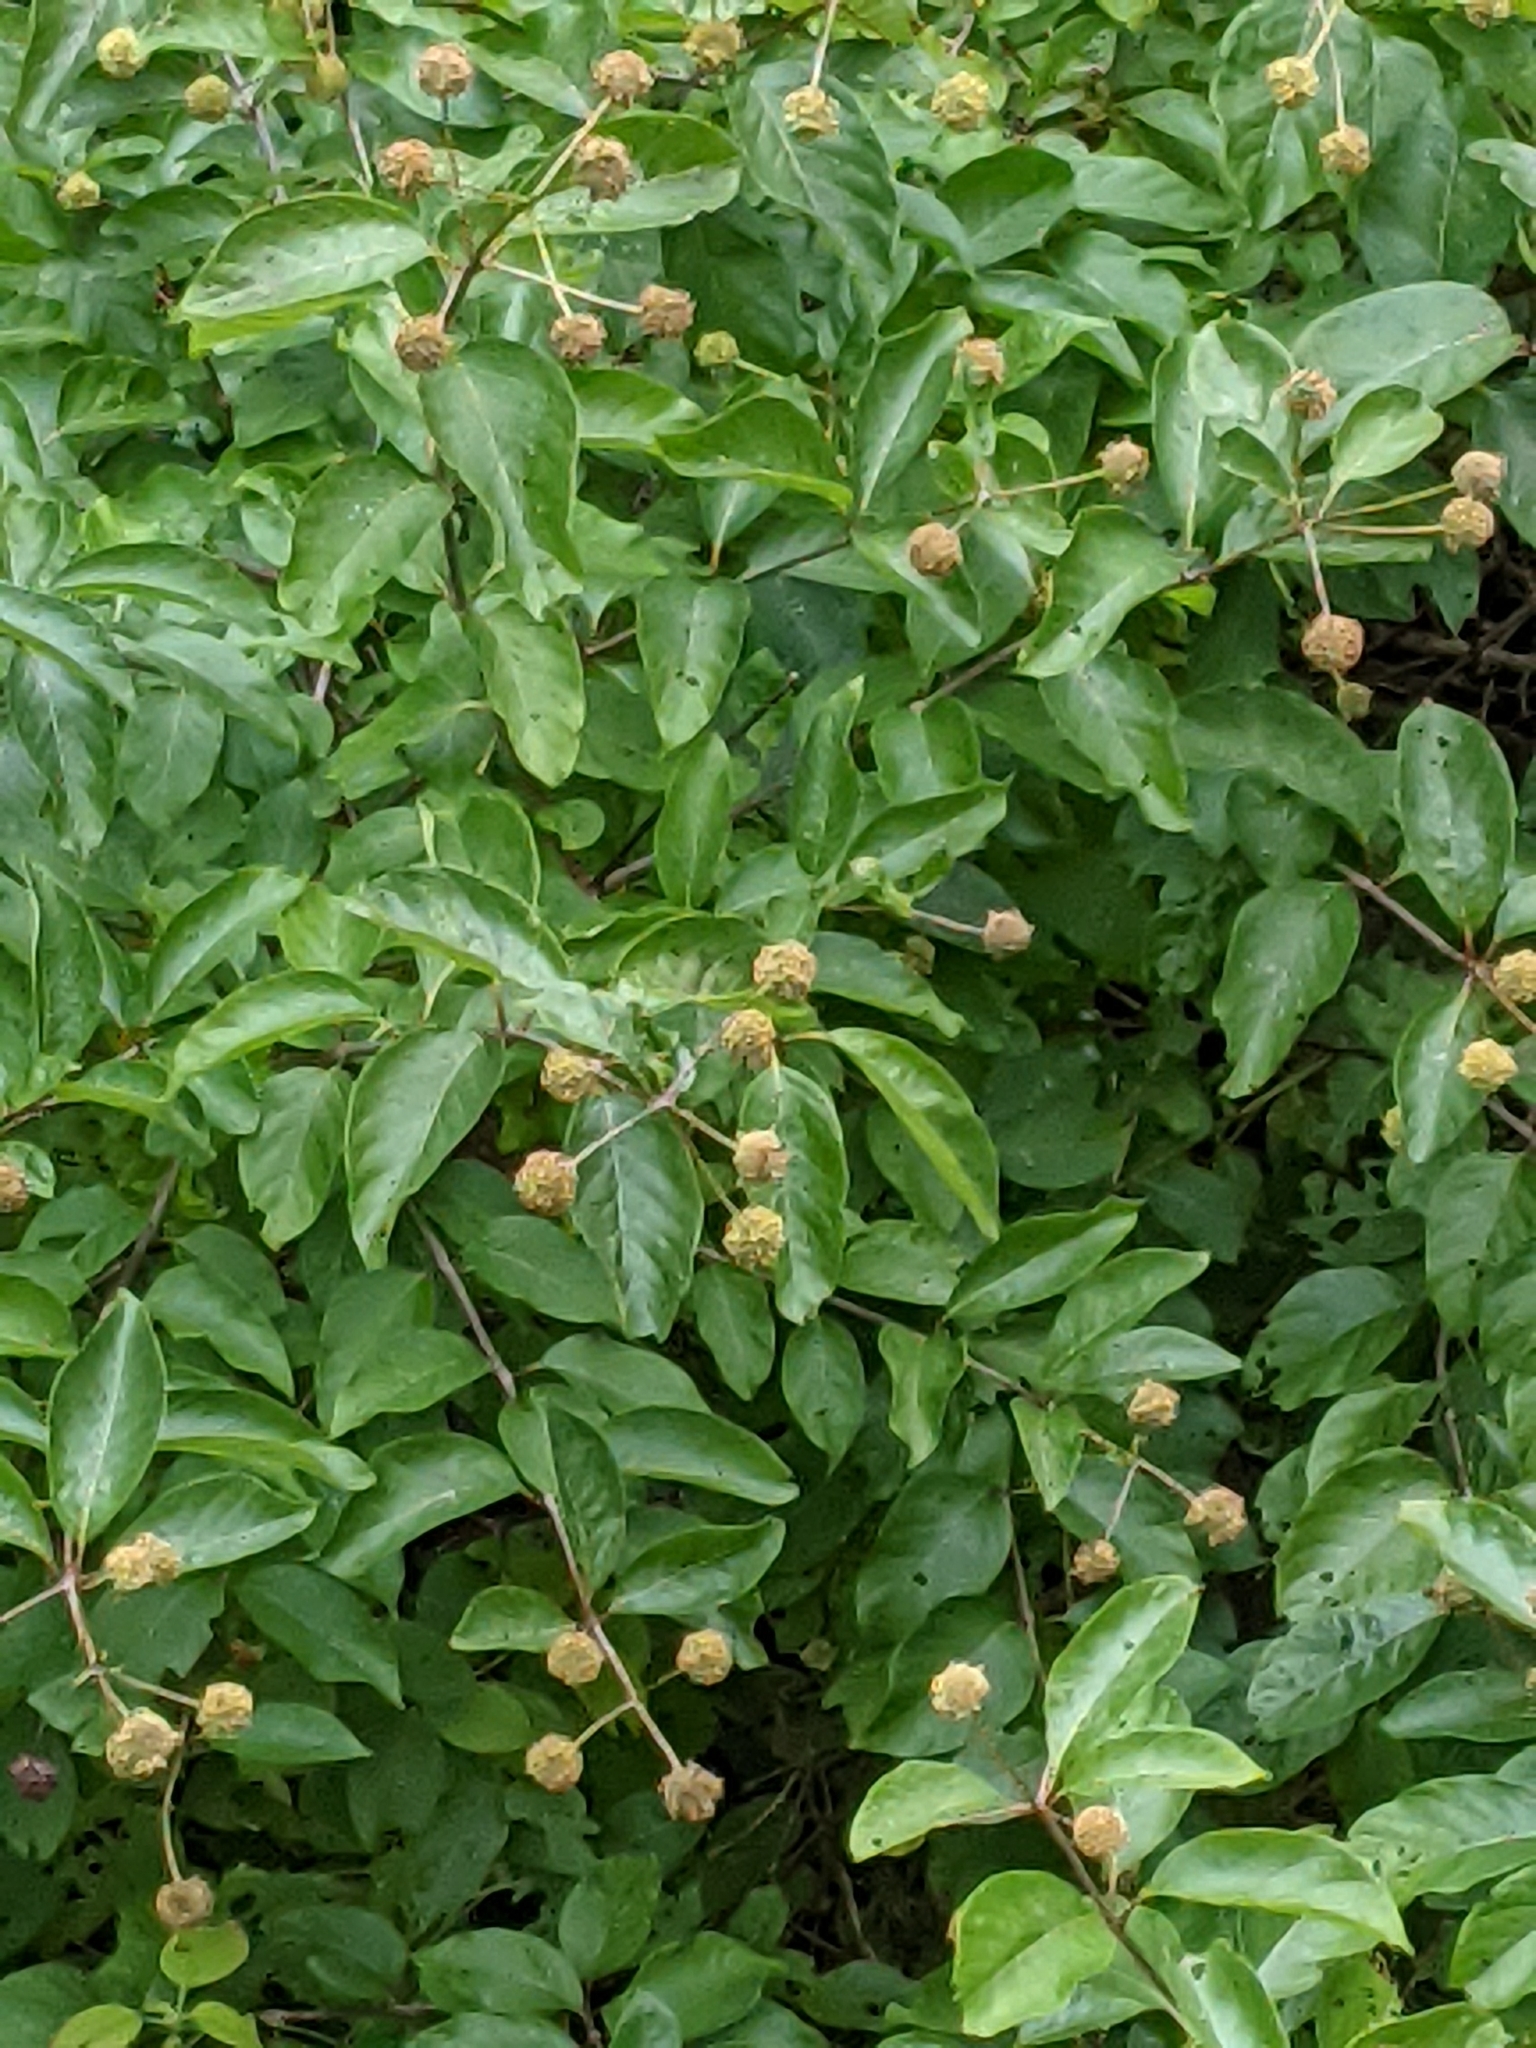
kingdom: Plantae
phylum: Tracheophyta
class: Magnoliopsida
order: Gentianales
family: Rubiaceae
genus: Cephalanthus
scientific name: Cephalanthus occidentalis
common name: Button-willow
